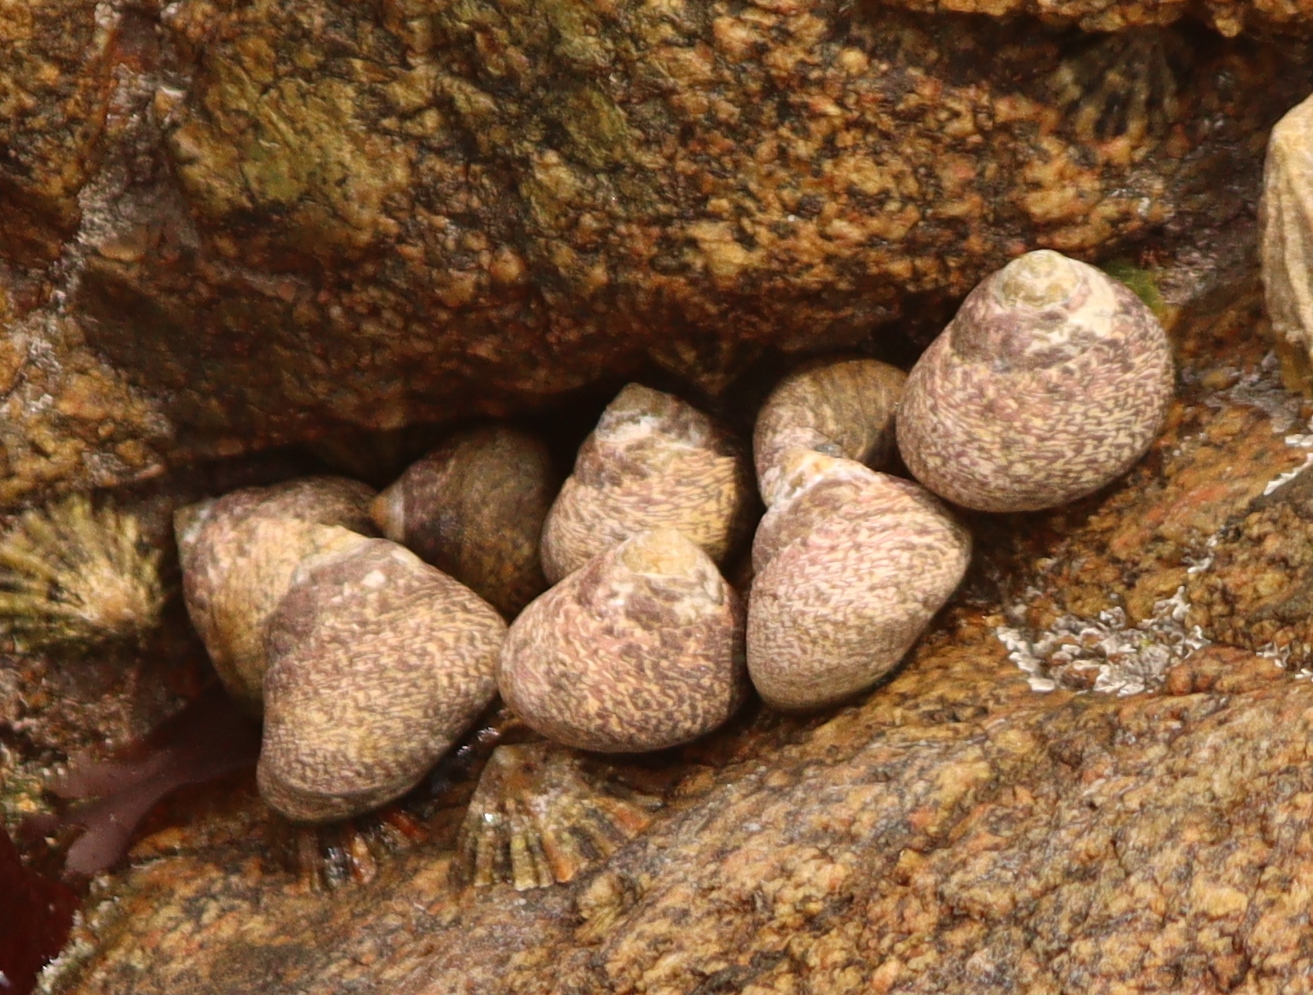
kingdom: Animalia
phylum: Mollusca
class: Gastropoda
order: Trochida
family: Trochidae
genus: Phorcus
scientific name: Phorcus lineatus
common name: Toothed top shell
